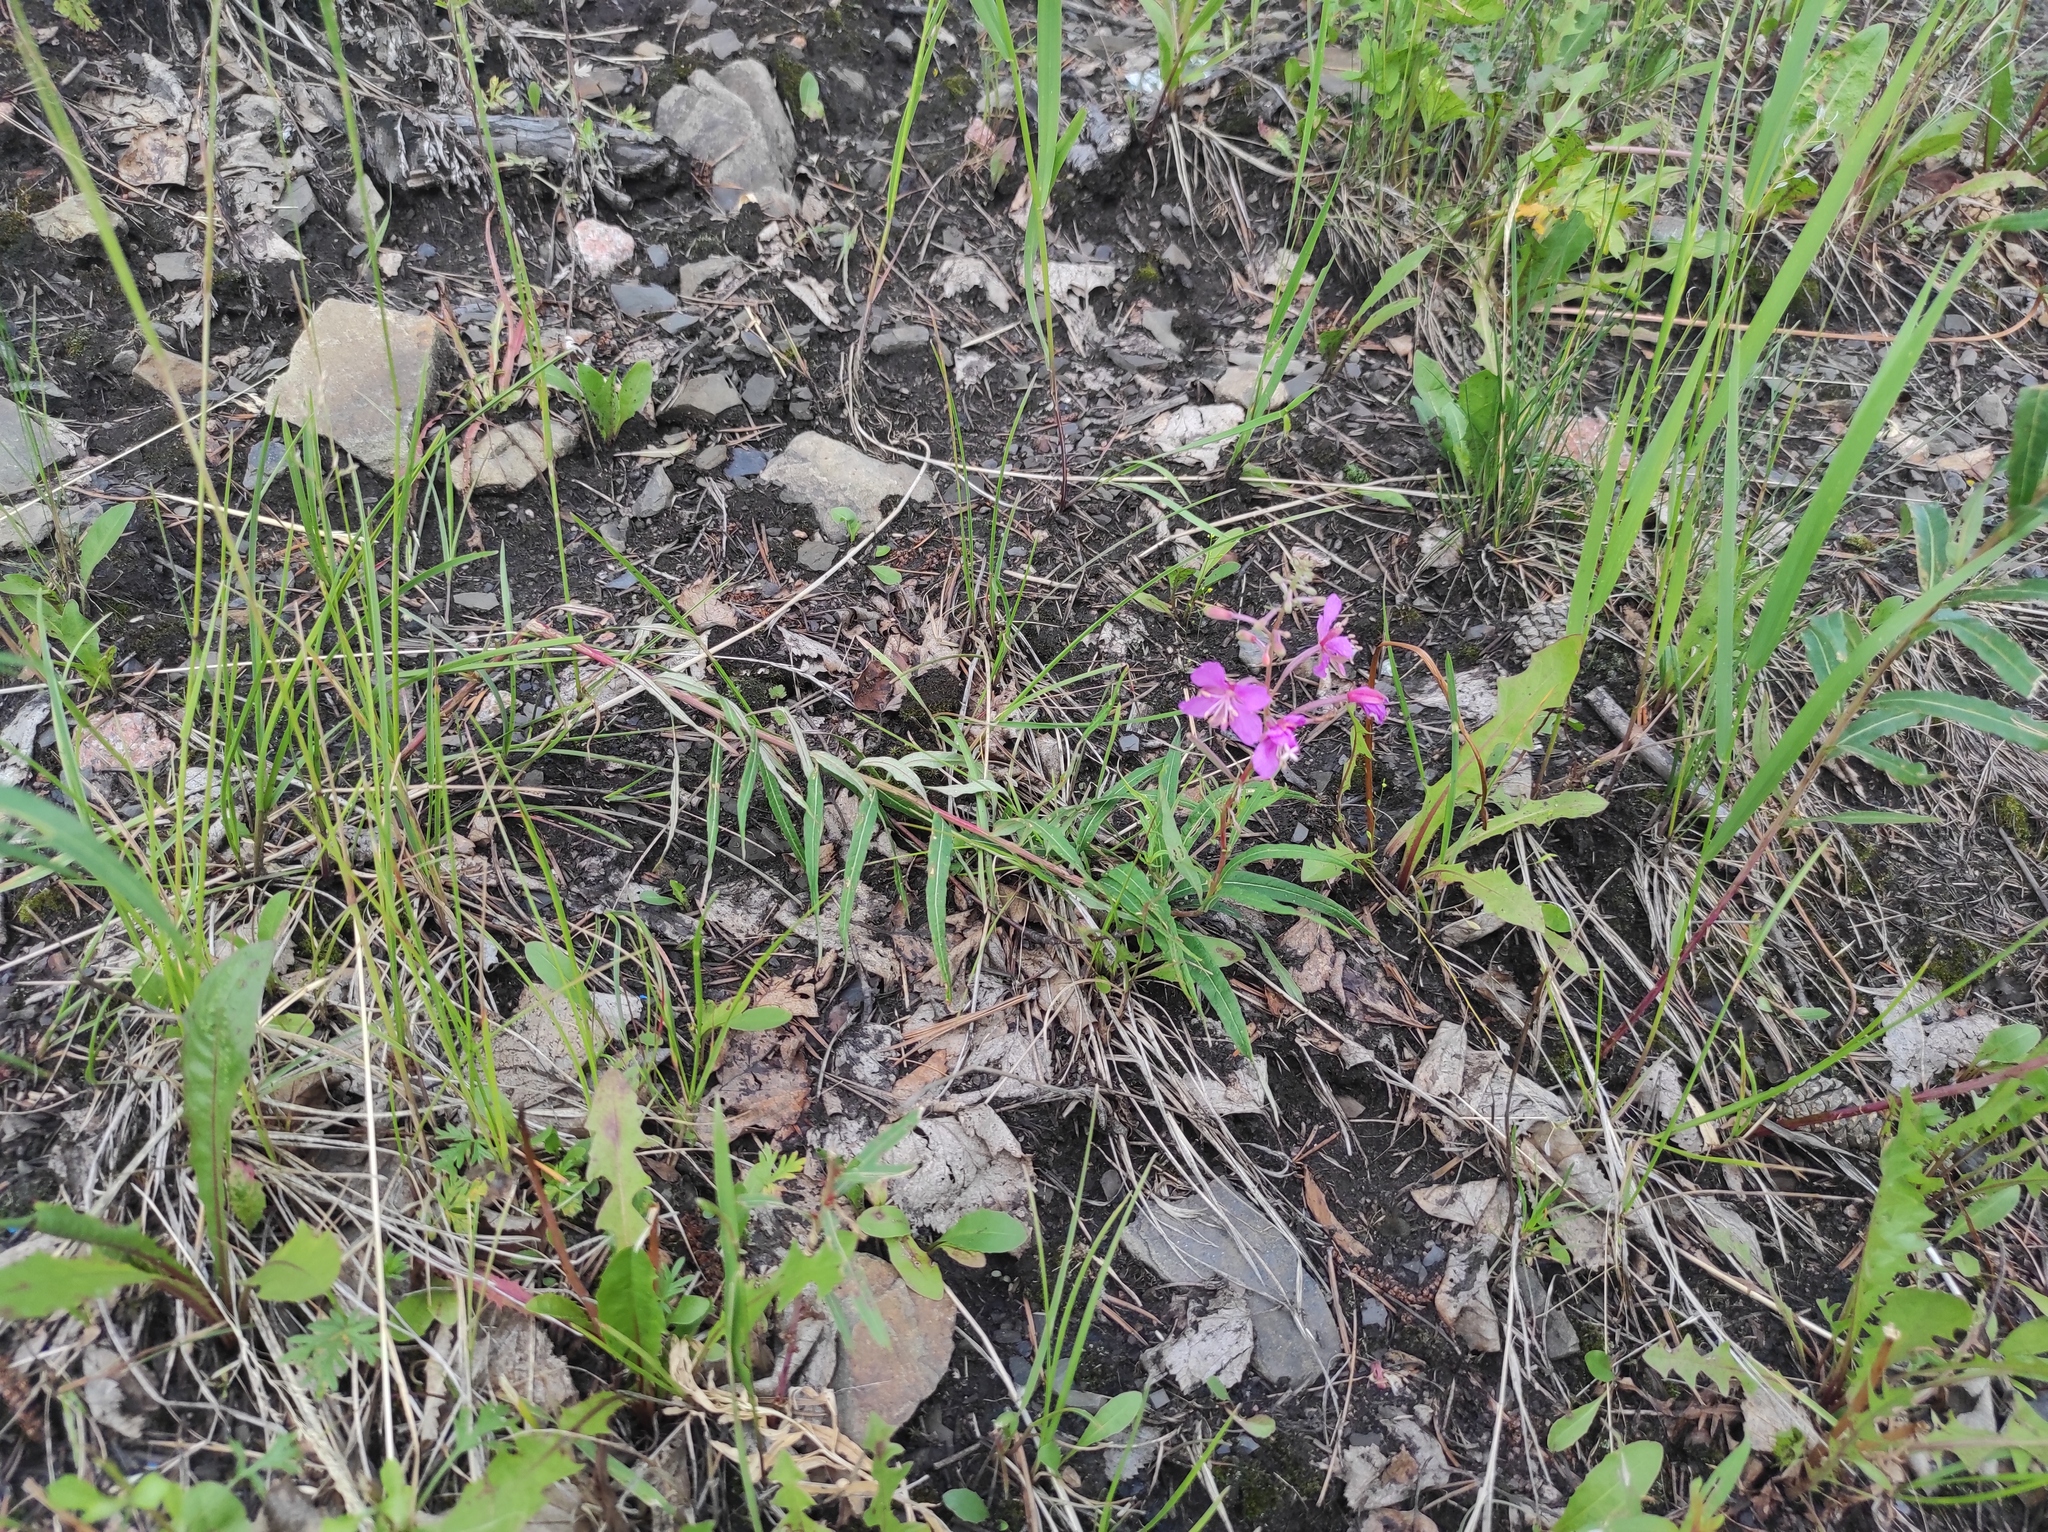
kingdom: Plantae
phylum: Tracheophyta
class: Magnoliopsida
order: Myrtales
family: Onagraceae
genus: Chamaenerion
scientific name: Chamaenerion angustifolium
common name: Fireweed
